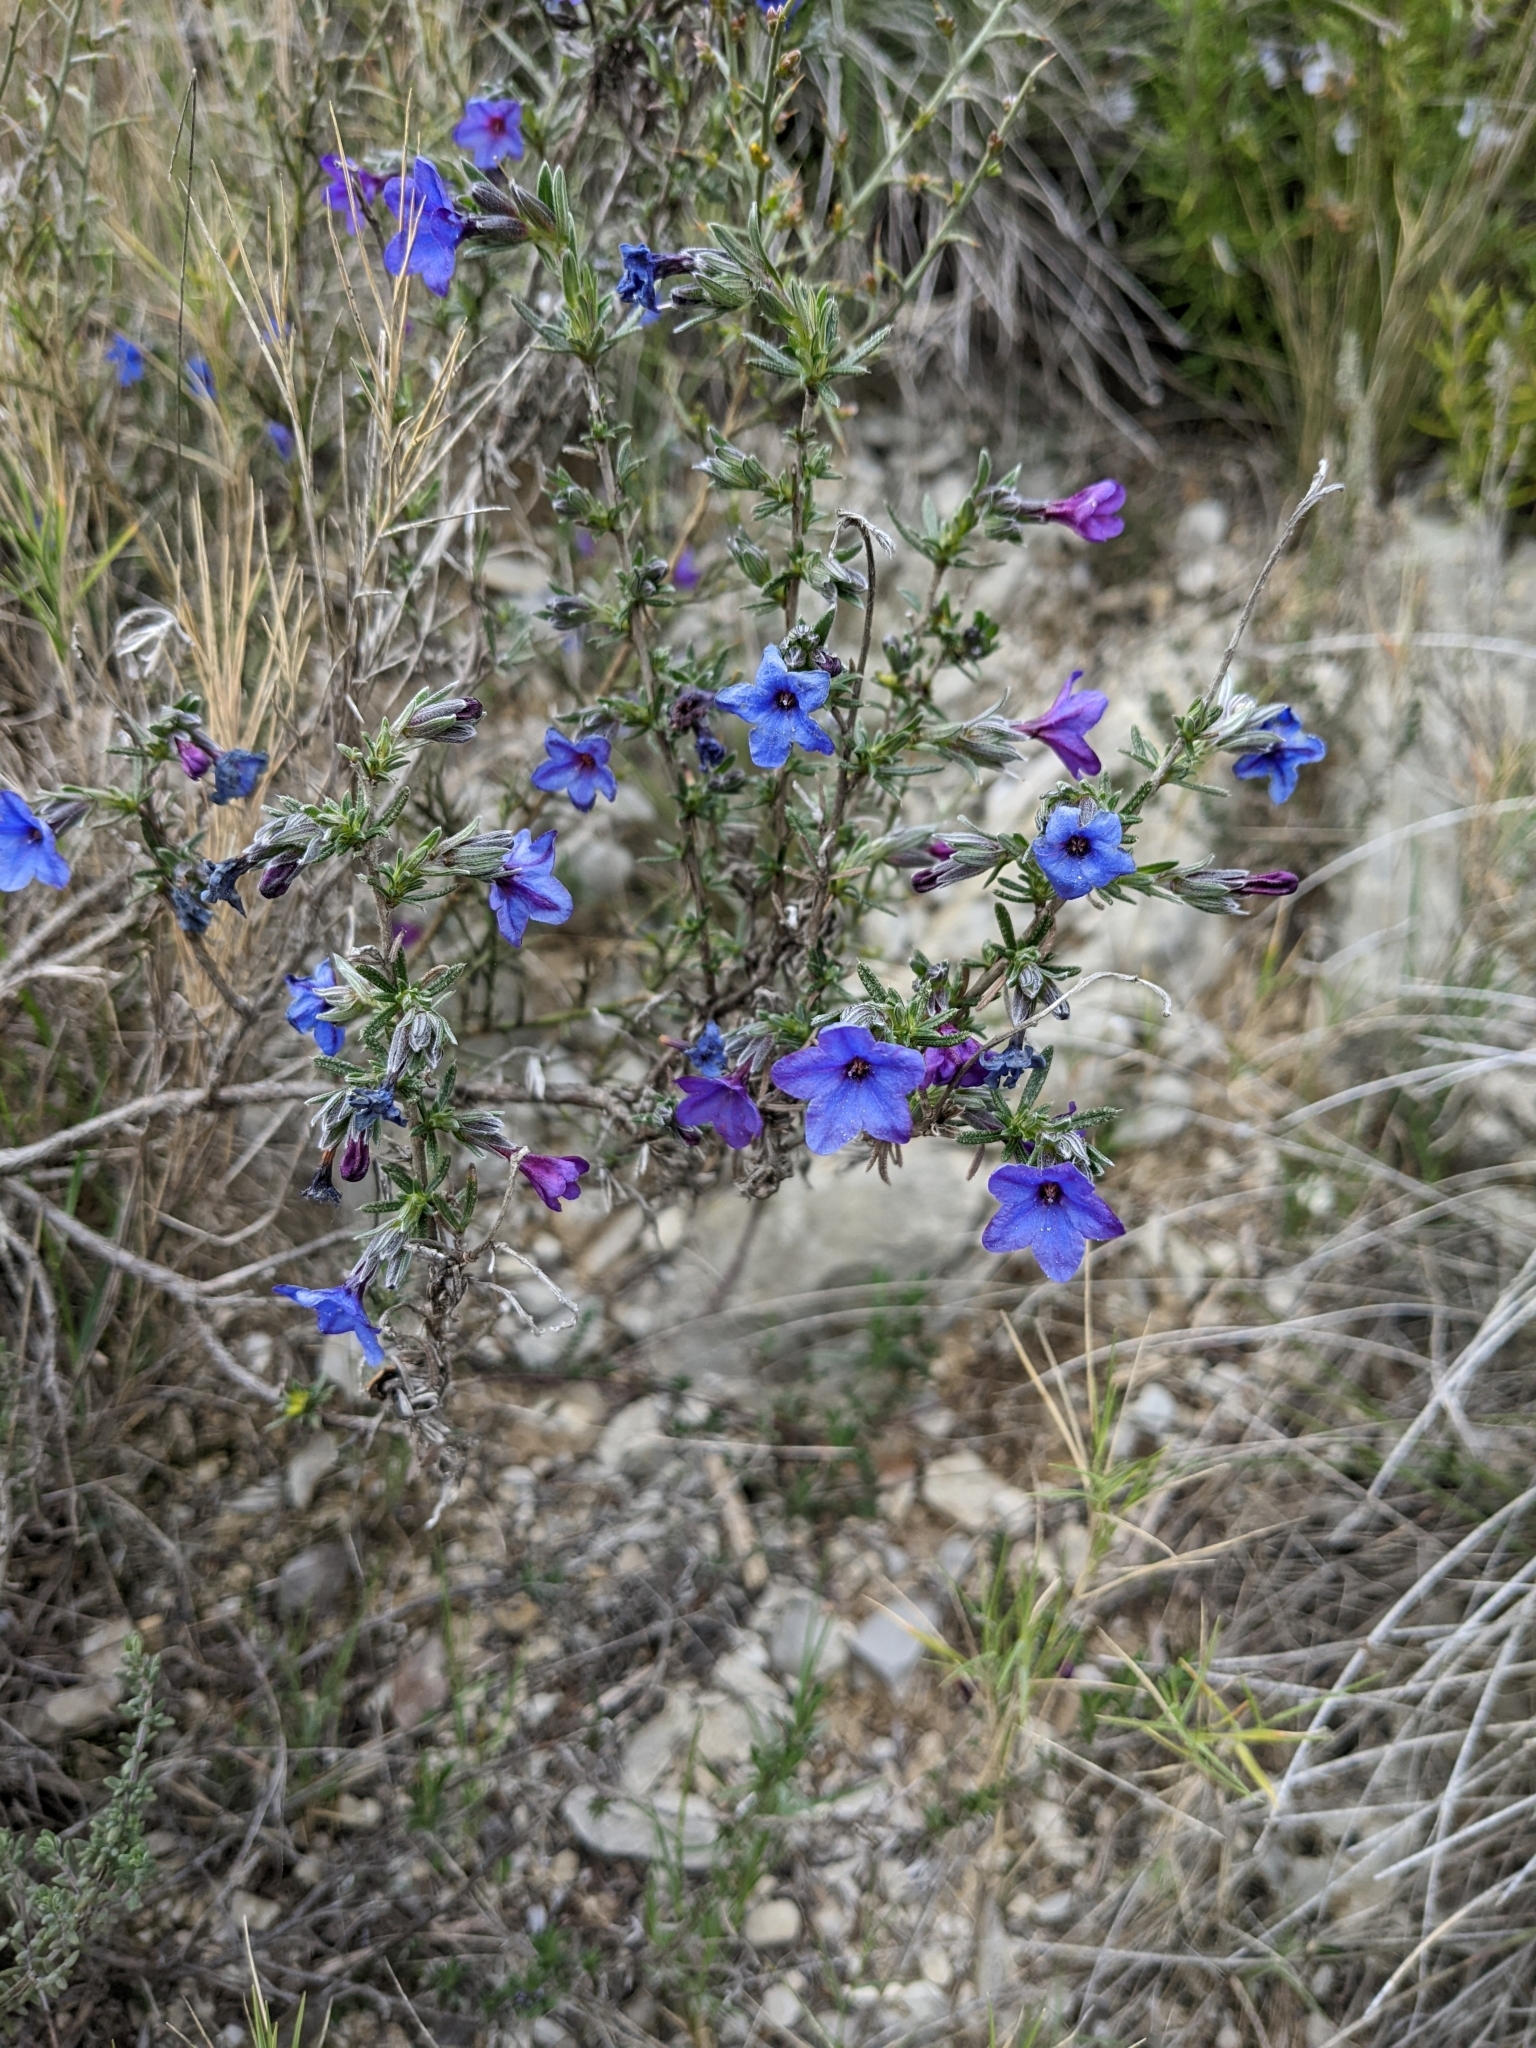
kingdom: Plantae
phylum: Tracheophyta
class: Magnoliopsida
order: Boraginales
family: Boraginaceae
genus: Lithodora
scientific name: Lithodora fruticosa
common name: Shrubby gromwell
